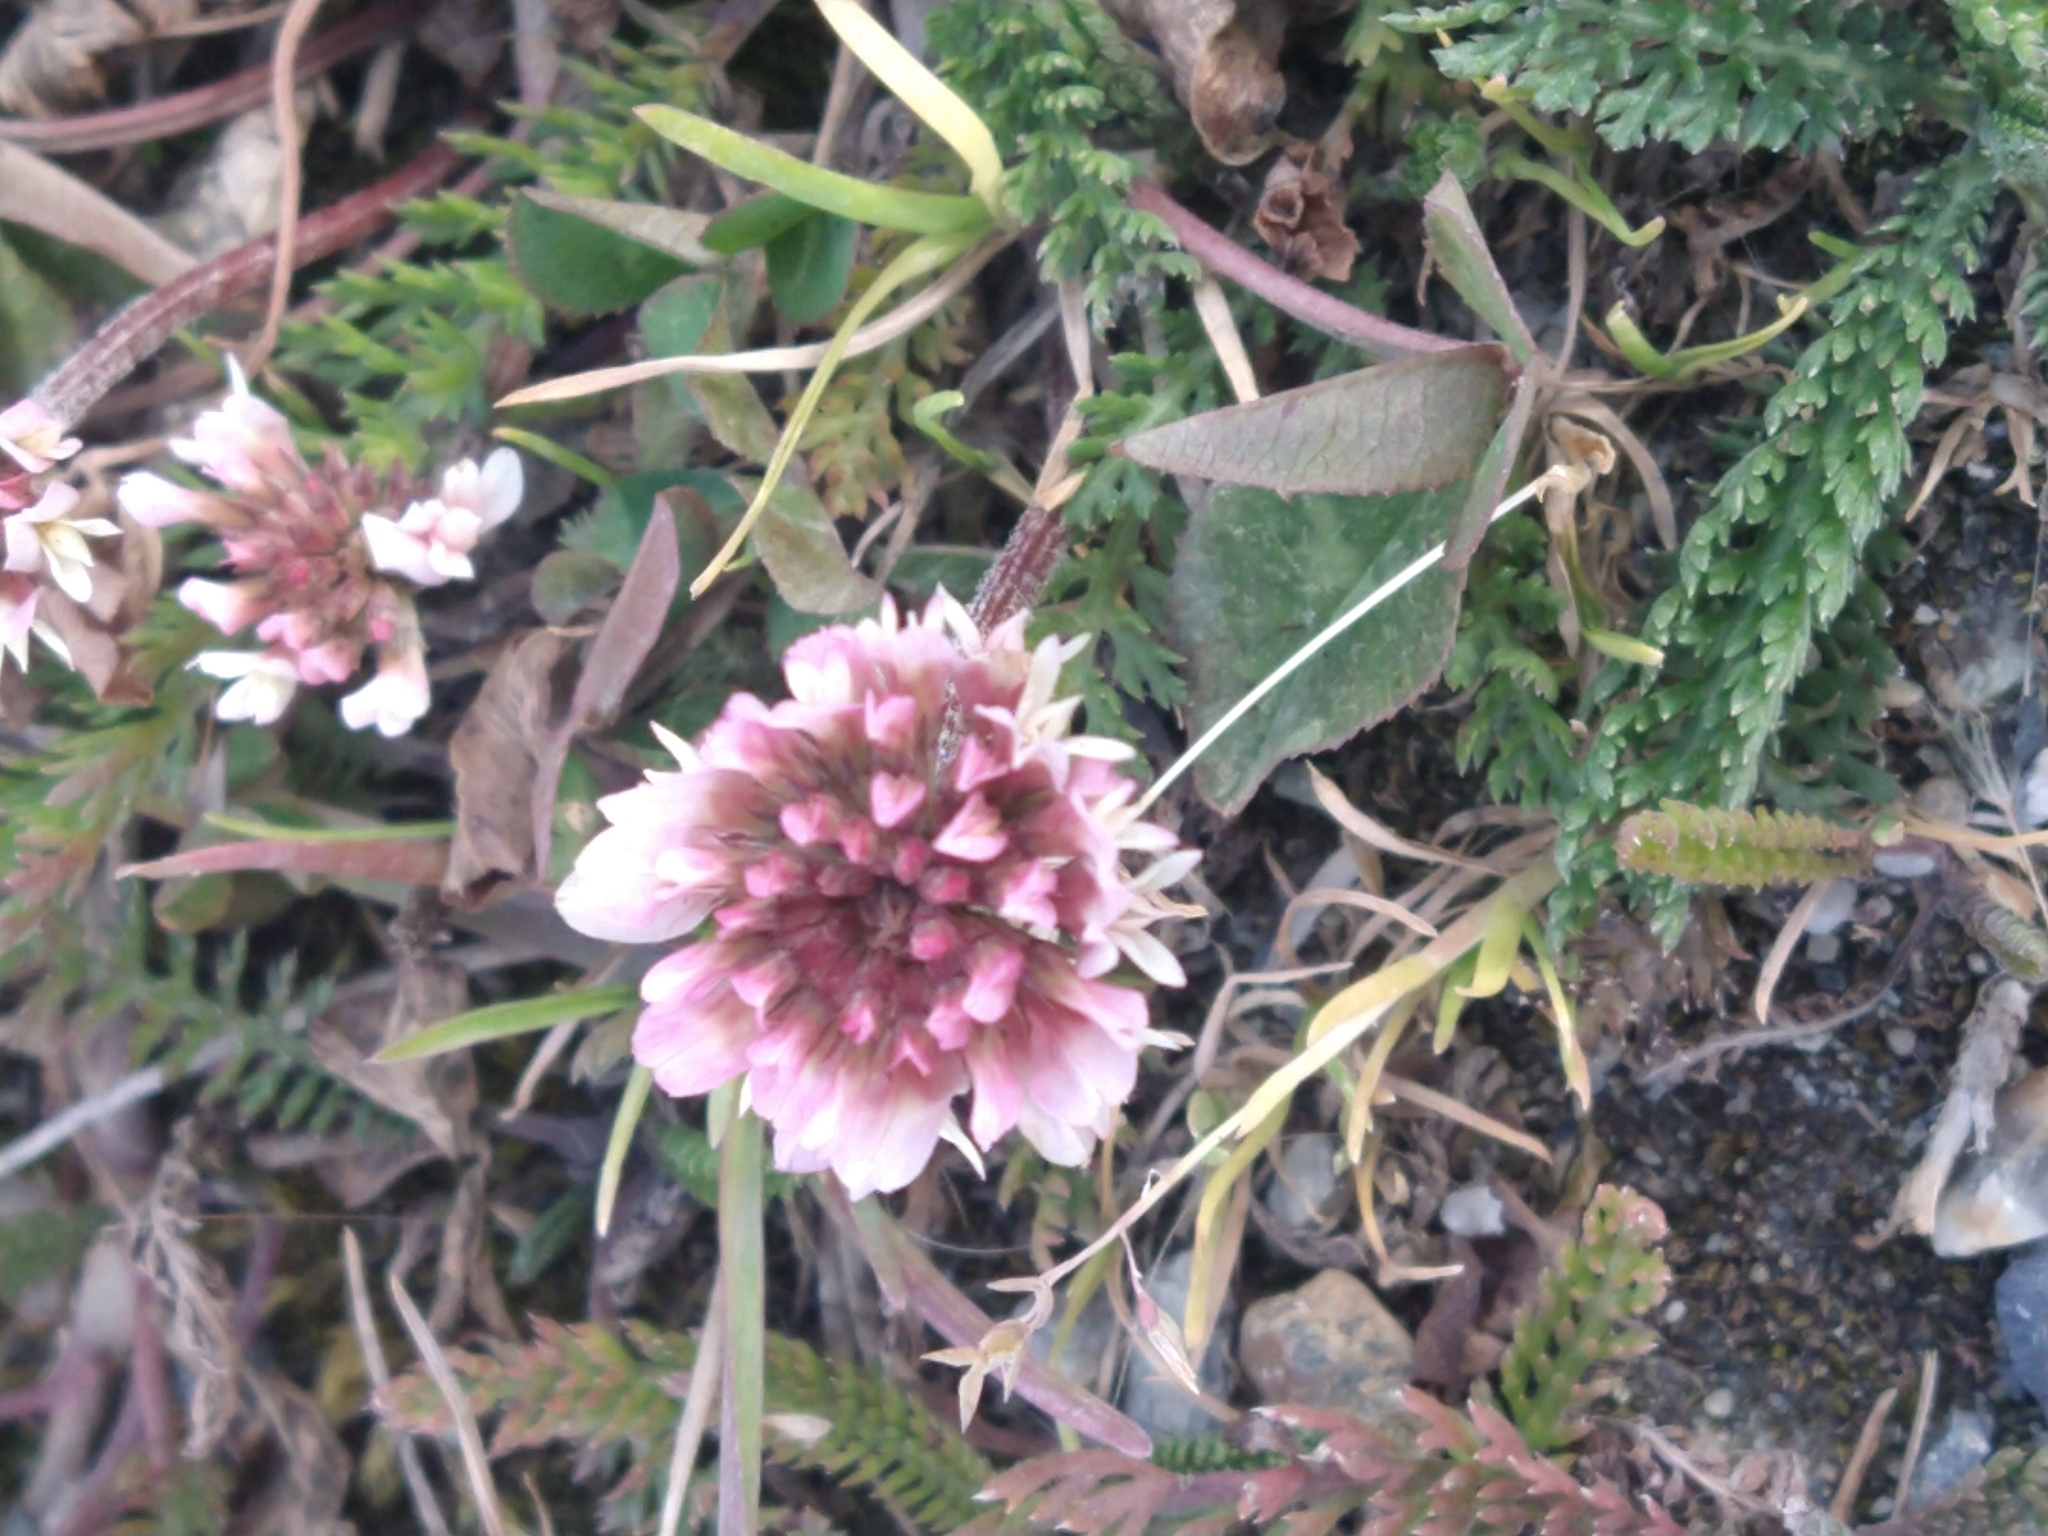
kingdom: Plantae
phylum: Tracheophyta
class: Magnoliopsida
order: Fabales
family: Fabaceae
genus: Trifolium
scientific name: Trifolium repens
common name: White clover
